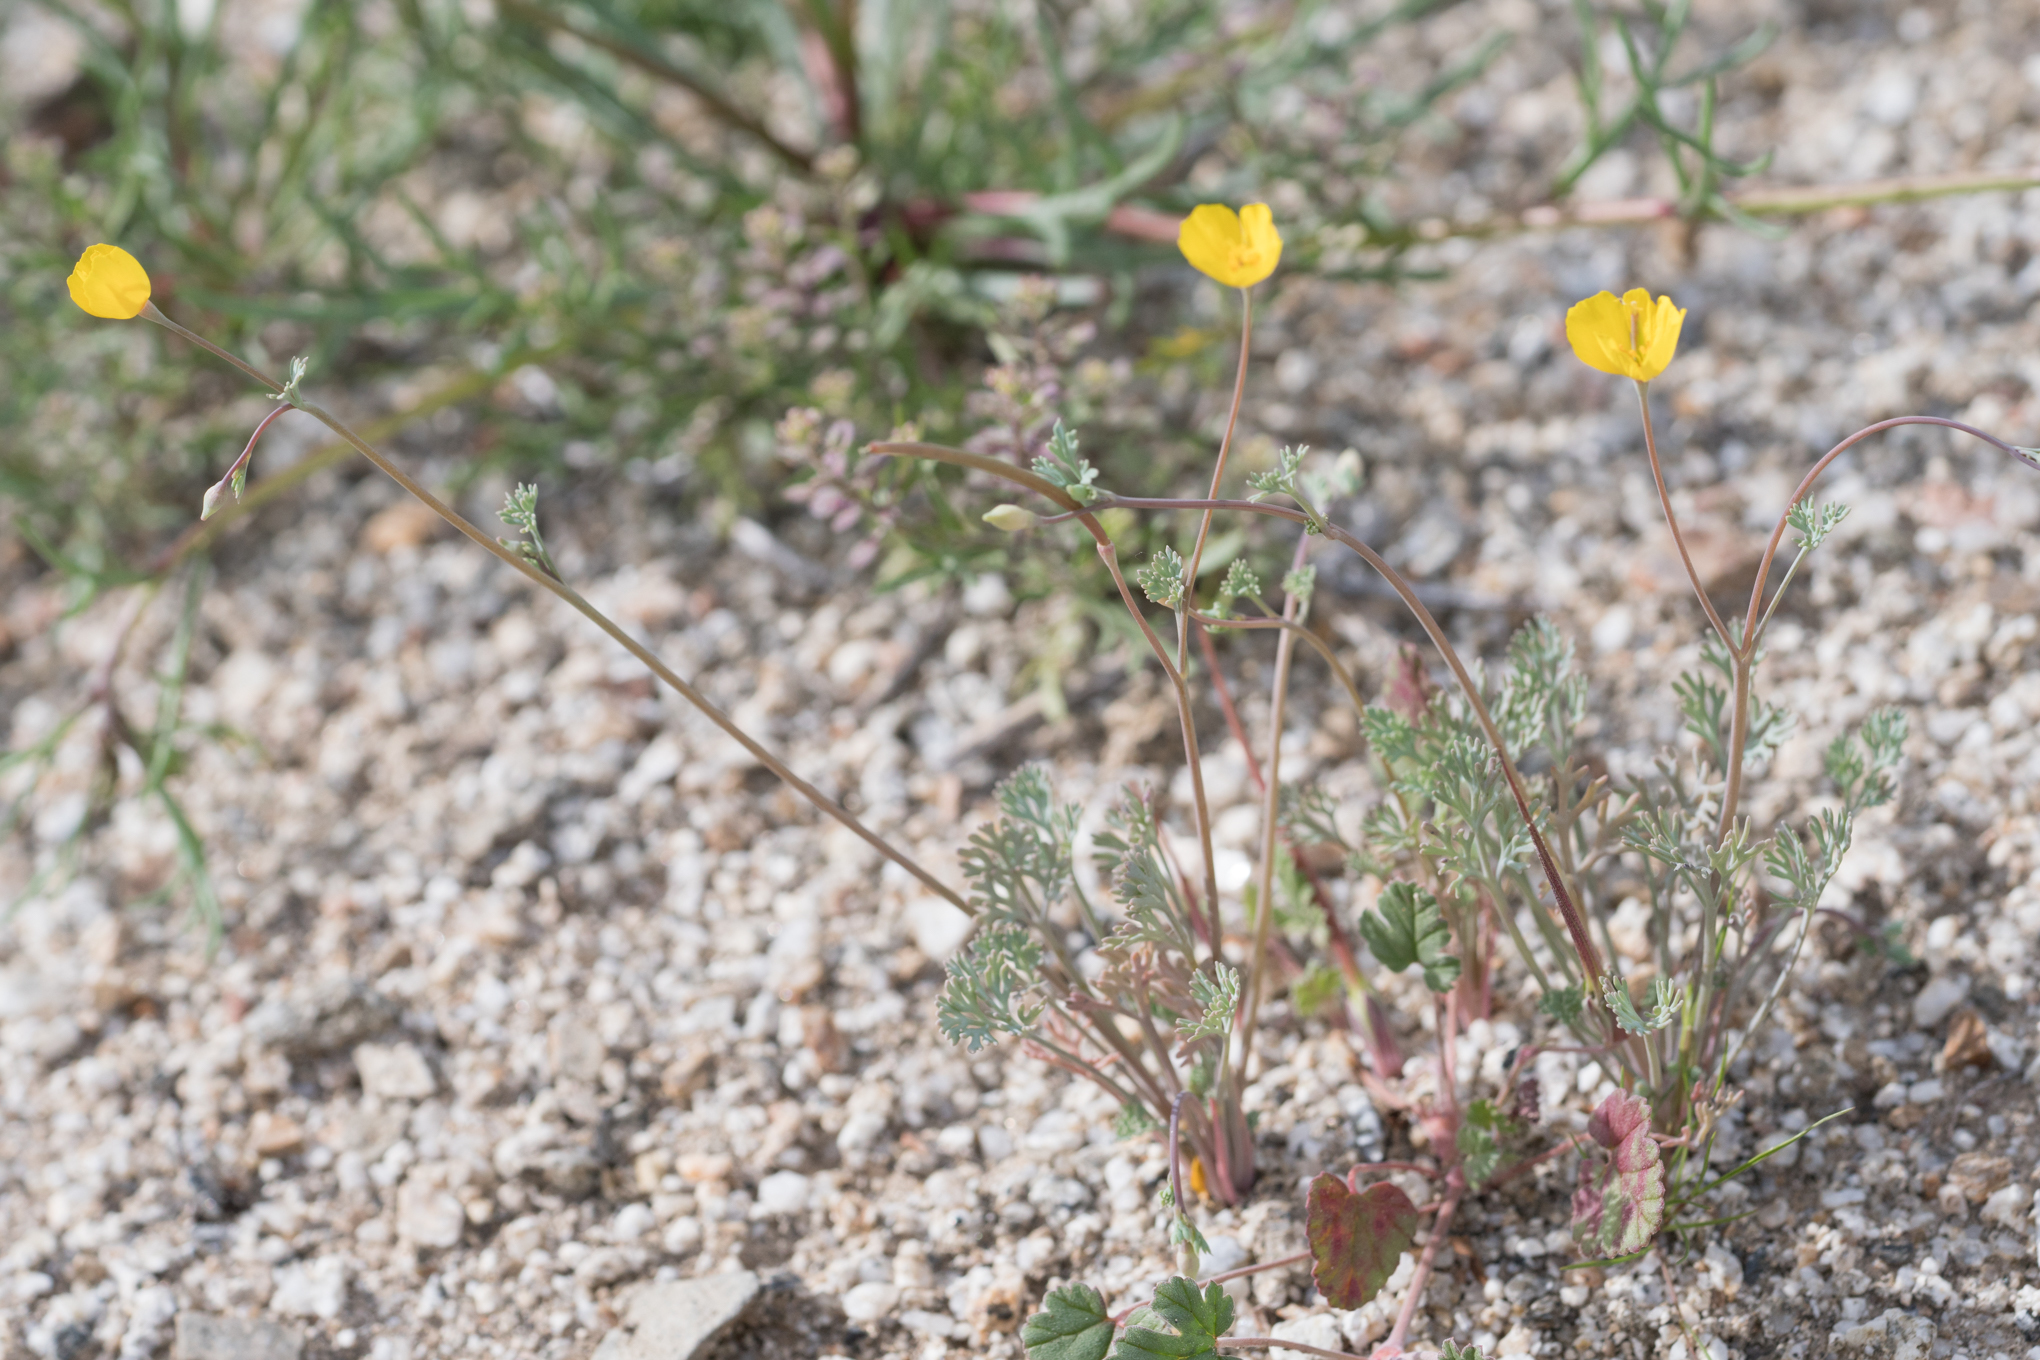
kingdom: Plantae
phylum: Tracheophyta
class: Magnoliopsida
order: Ranunculales
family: Papaveraceae
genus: Eschscholzia
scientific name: Eschscholzia minutiflora
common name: Small-flower california-poppy
